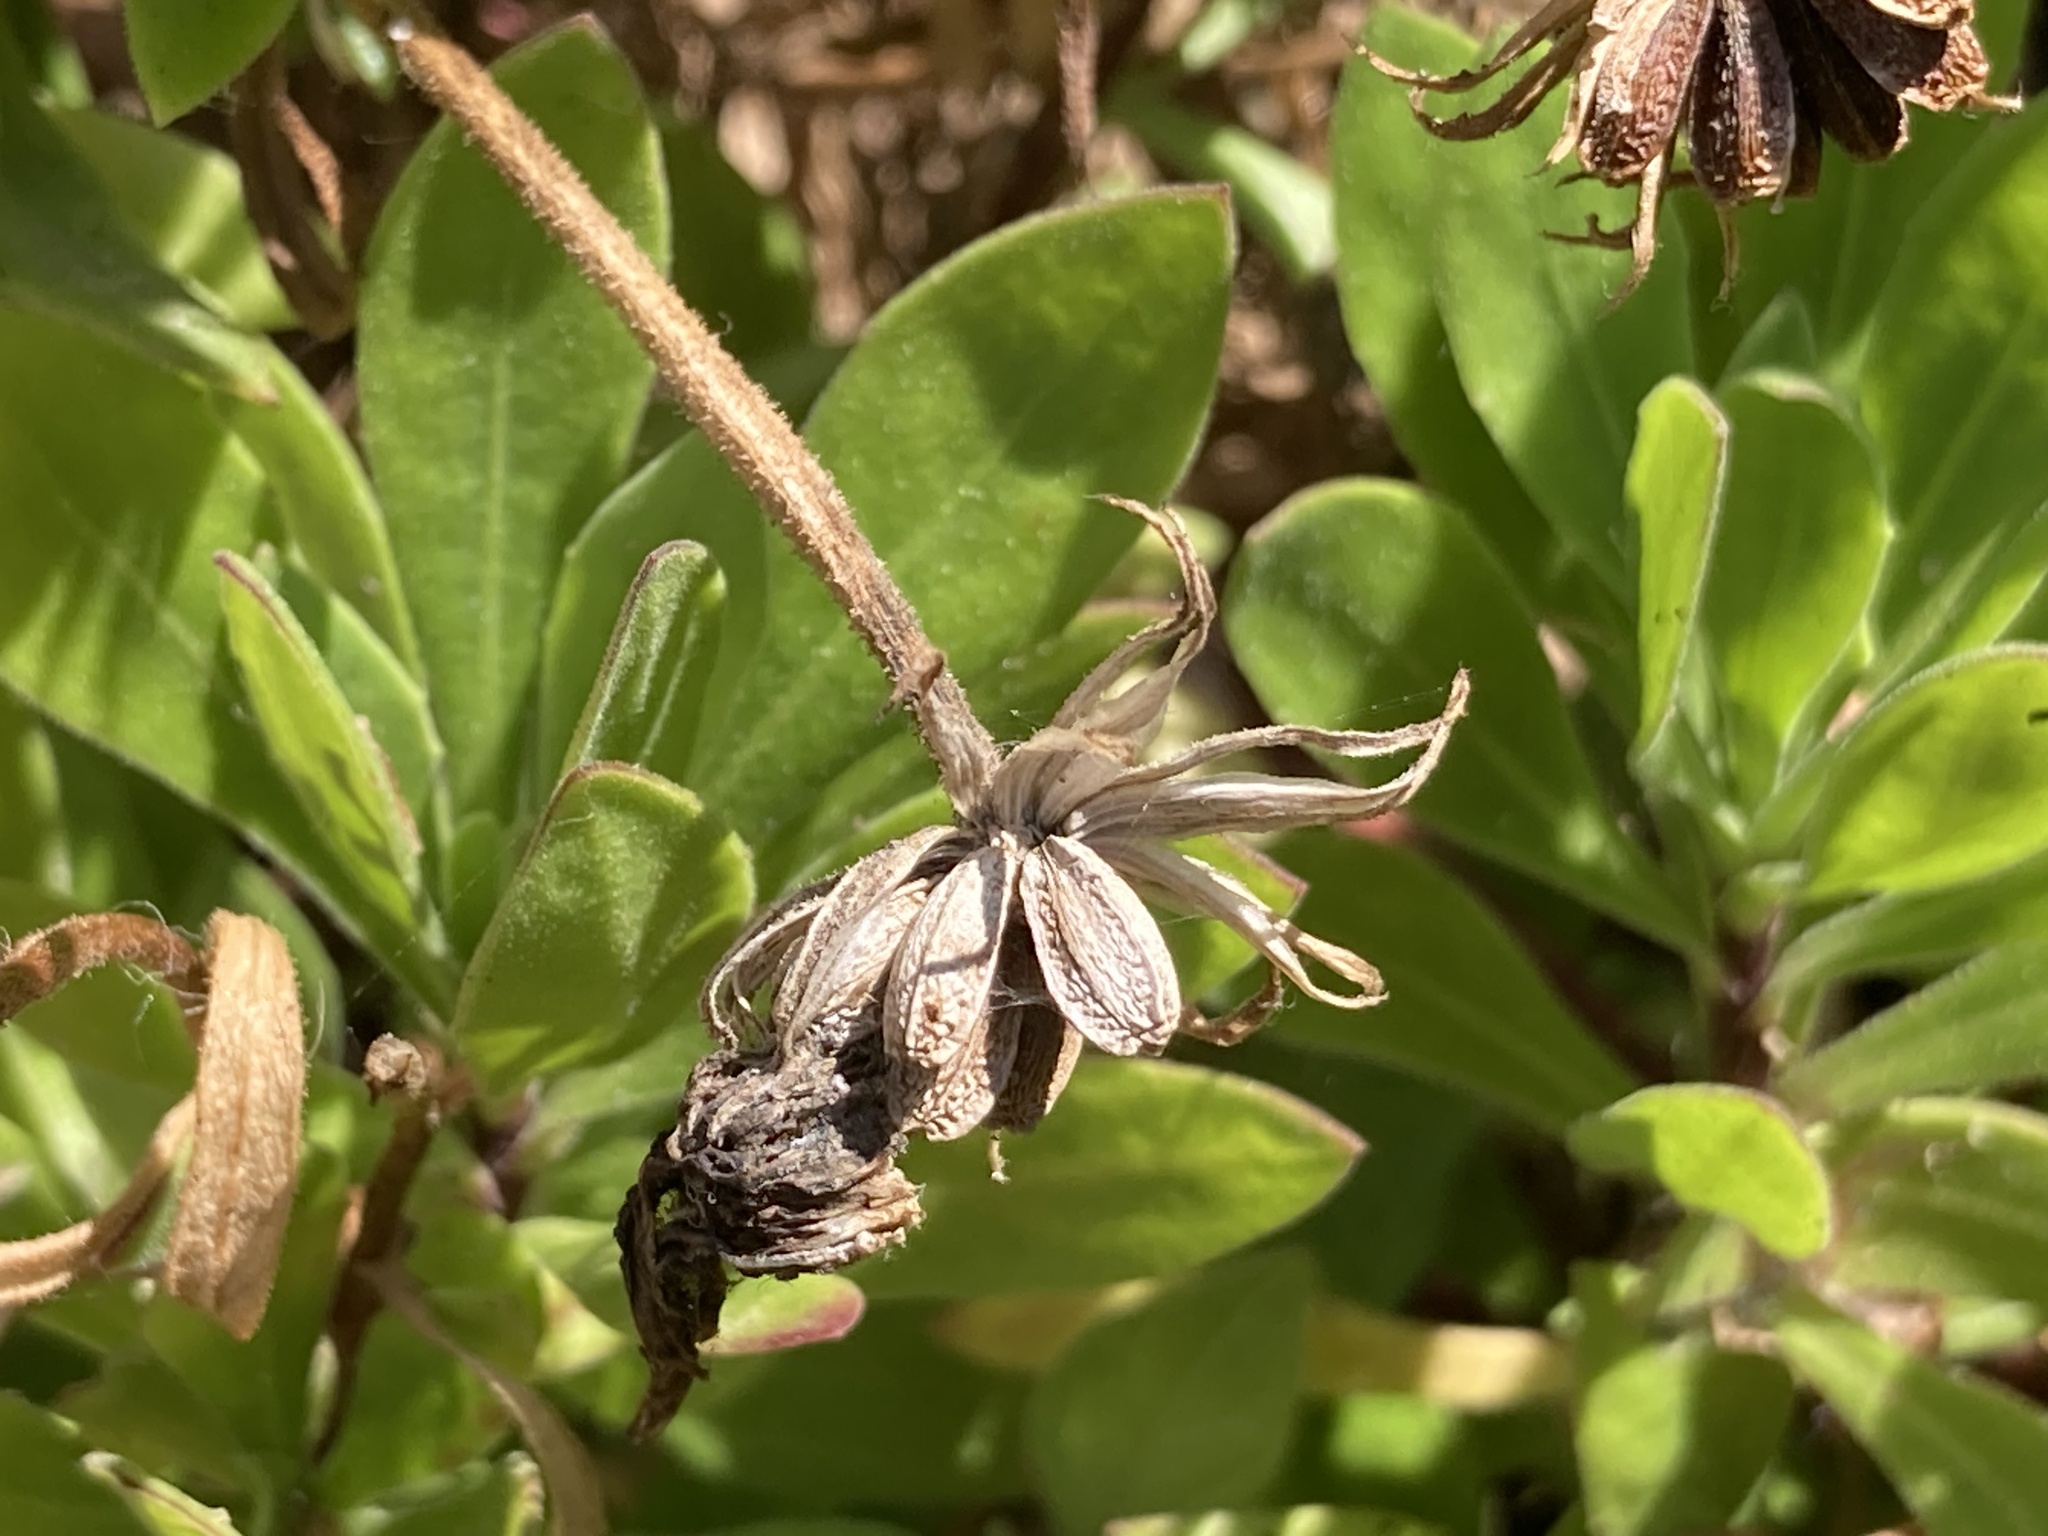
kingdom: Plantae
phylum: Tracheophyta
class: Magnoliopsida
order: Asterales
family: Asteraceae
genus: Dimorphotheca
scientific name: Dimorphotheca ecklonis
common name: Vanstaden's river daisy
